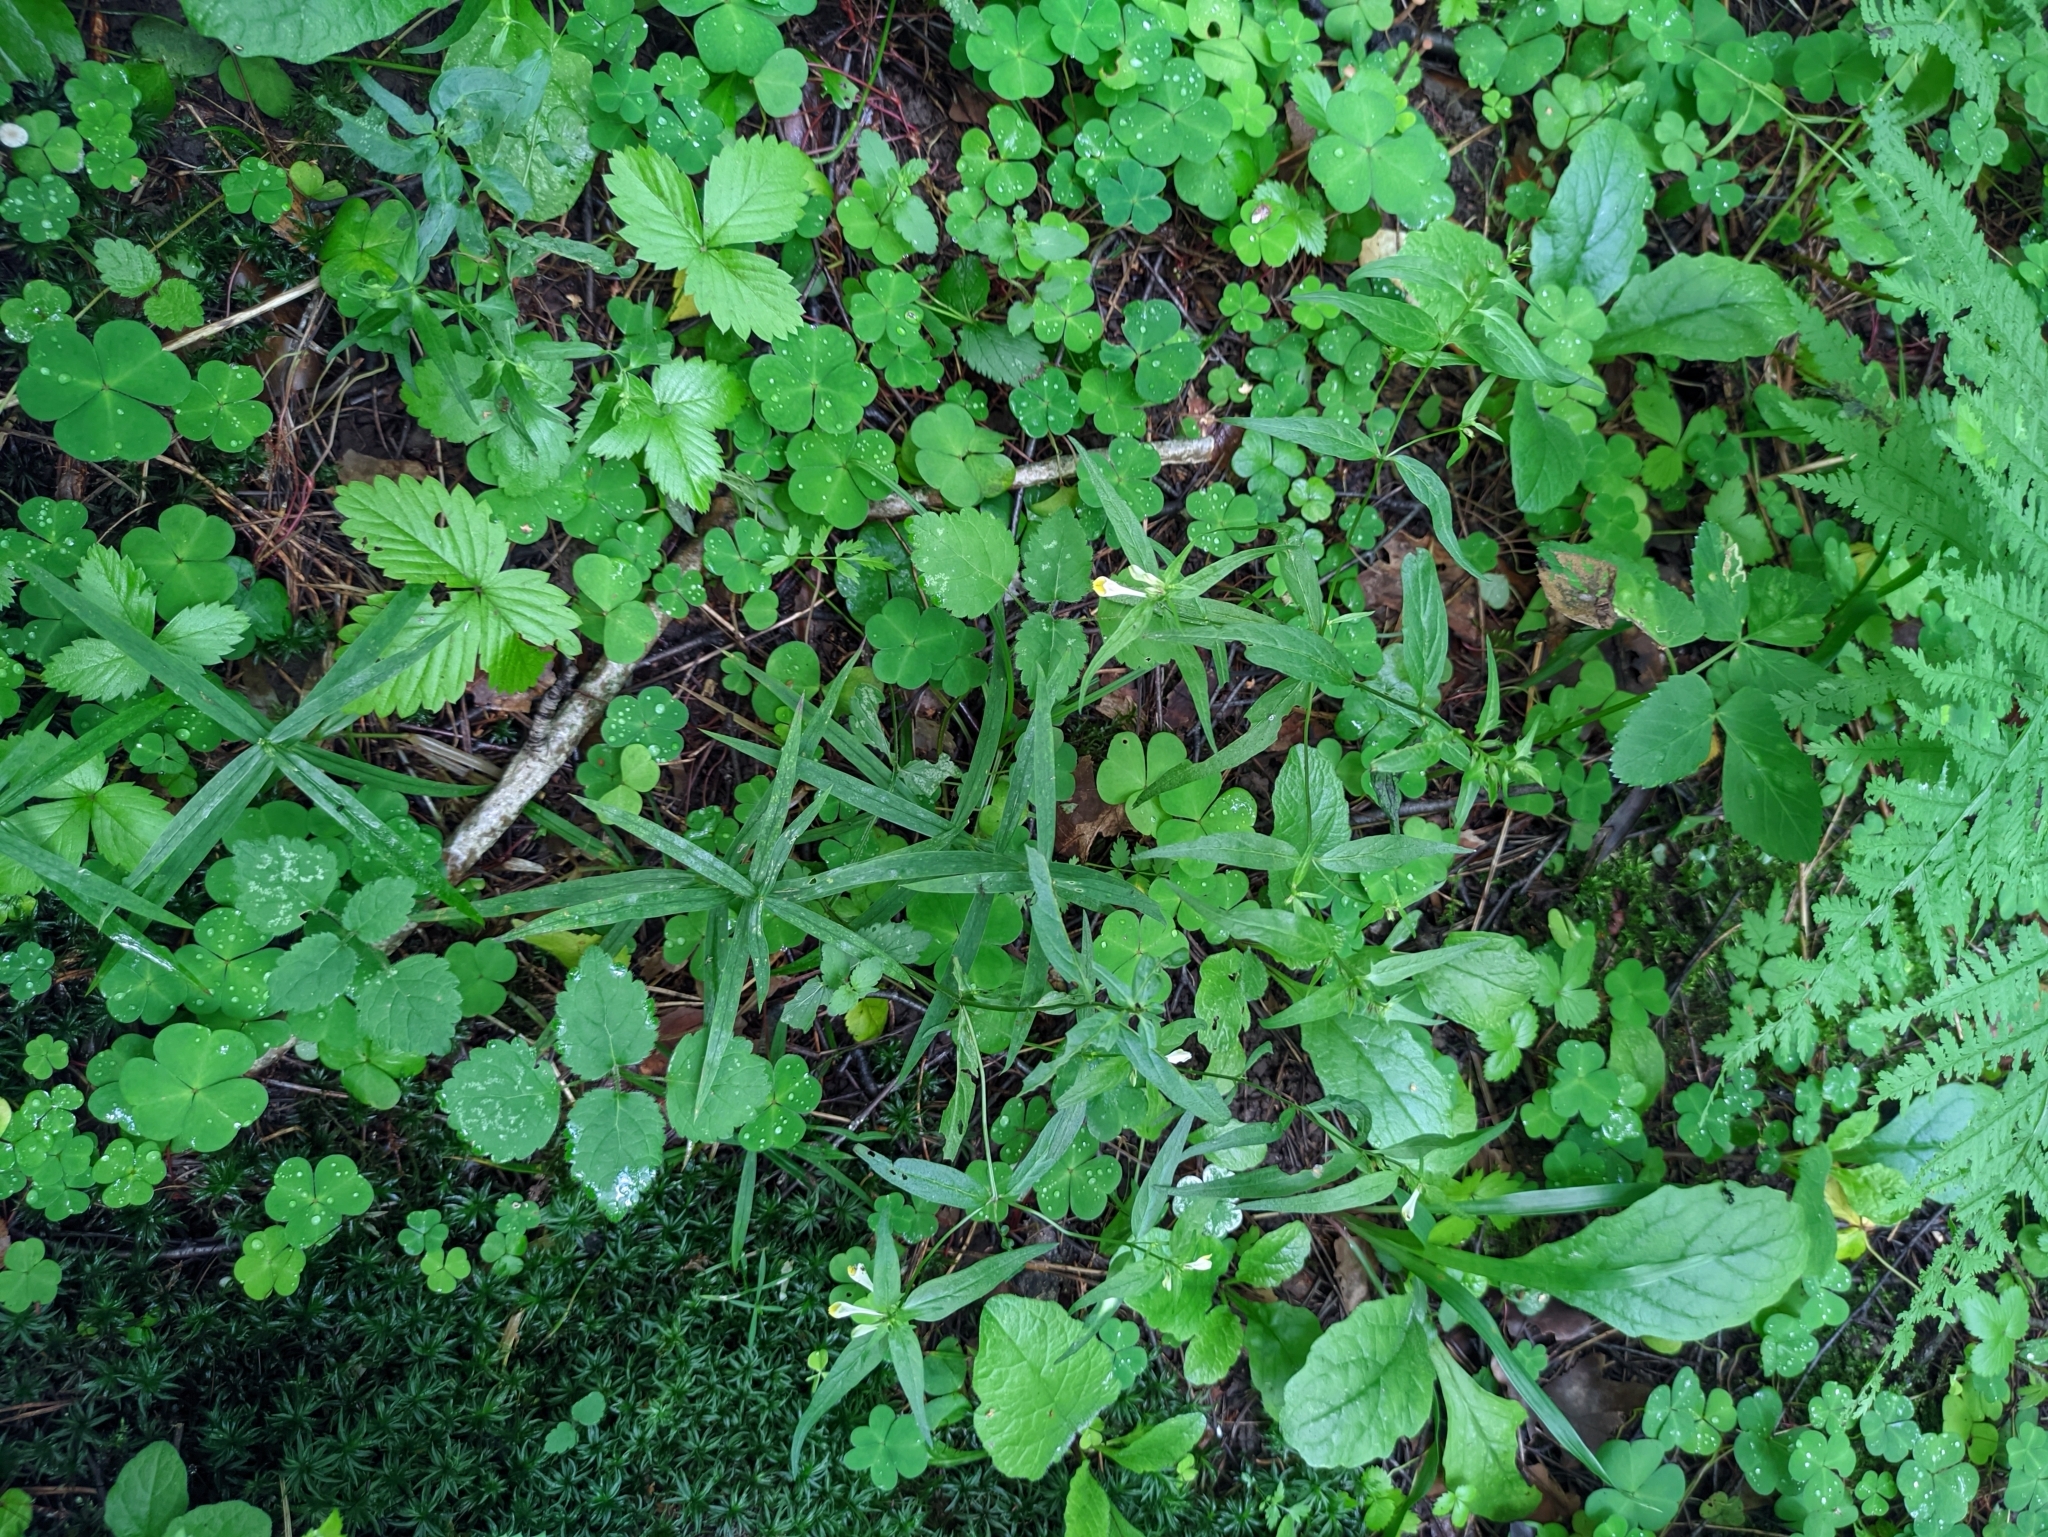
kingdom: Plantae
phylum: Tracheophyta
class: Magnoliopsida
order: Lamiales
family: Orobanchaceae
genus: Melampyrum
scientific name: Melampyrum pratense
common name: Common cow-wheat
